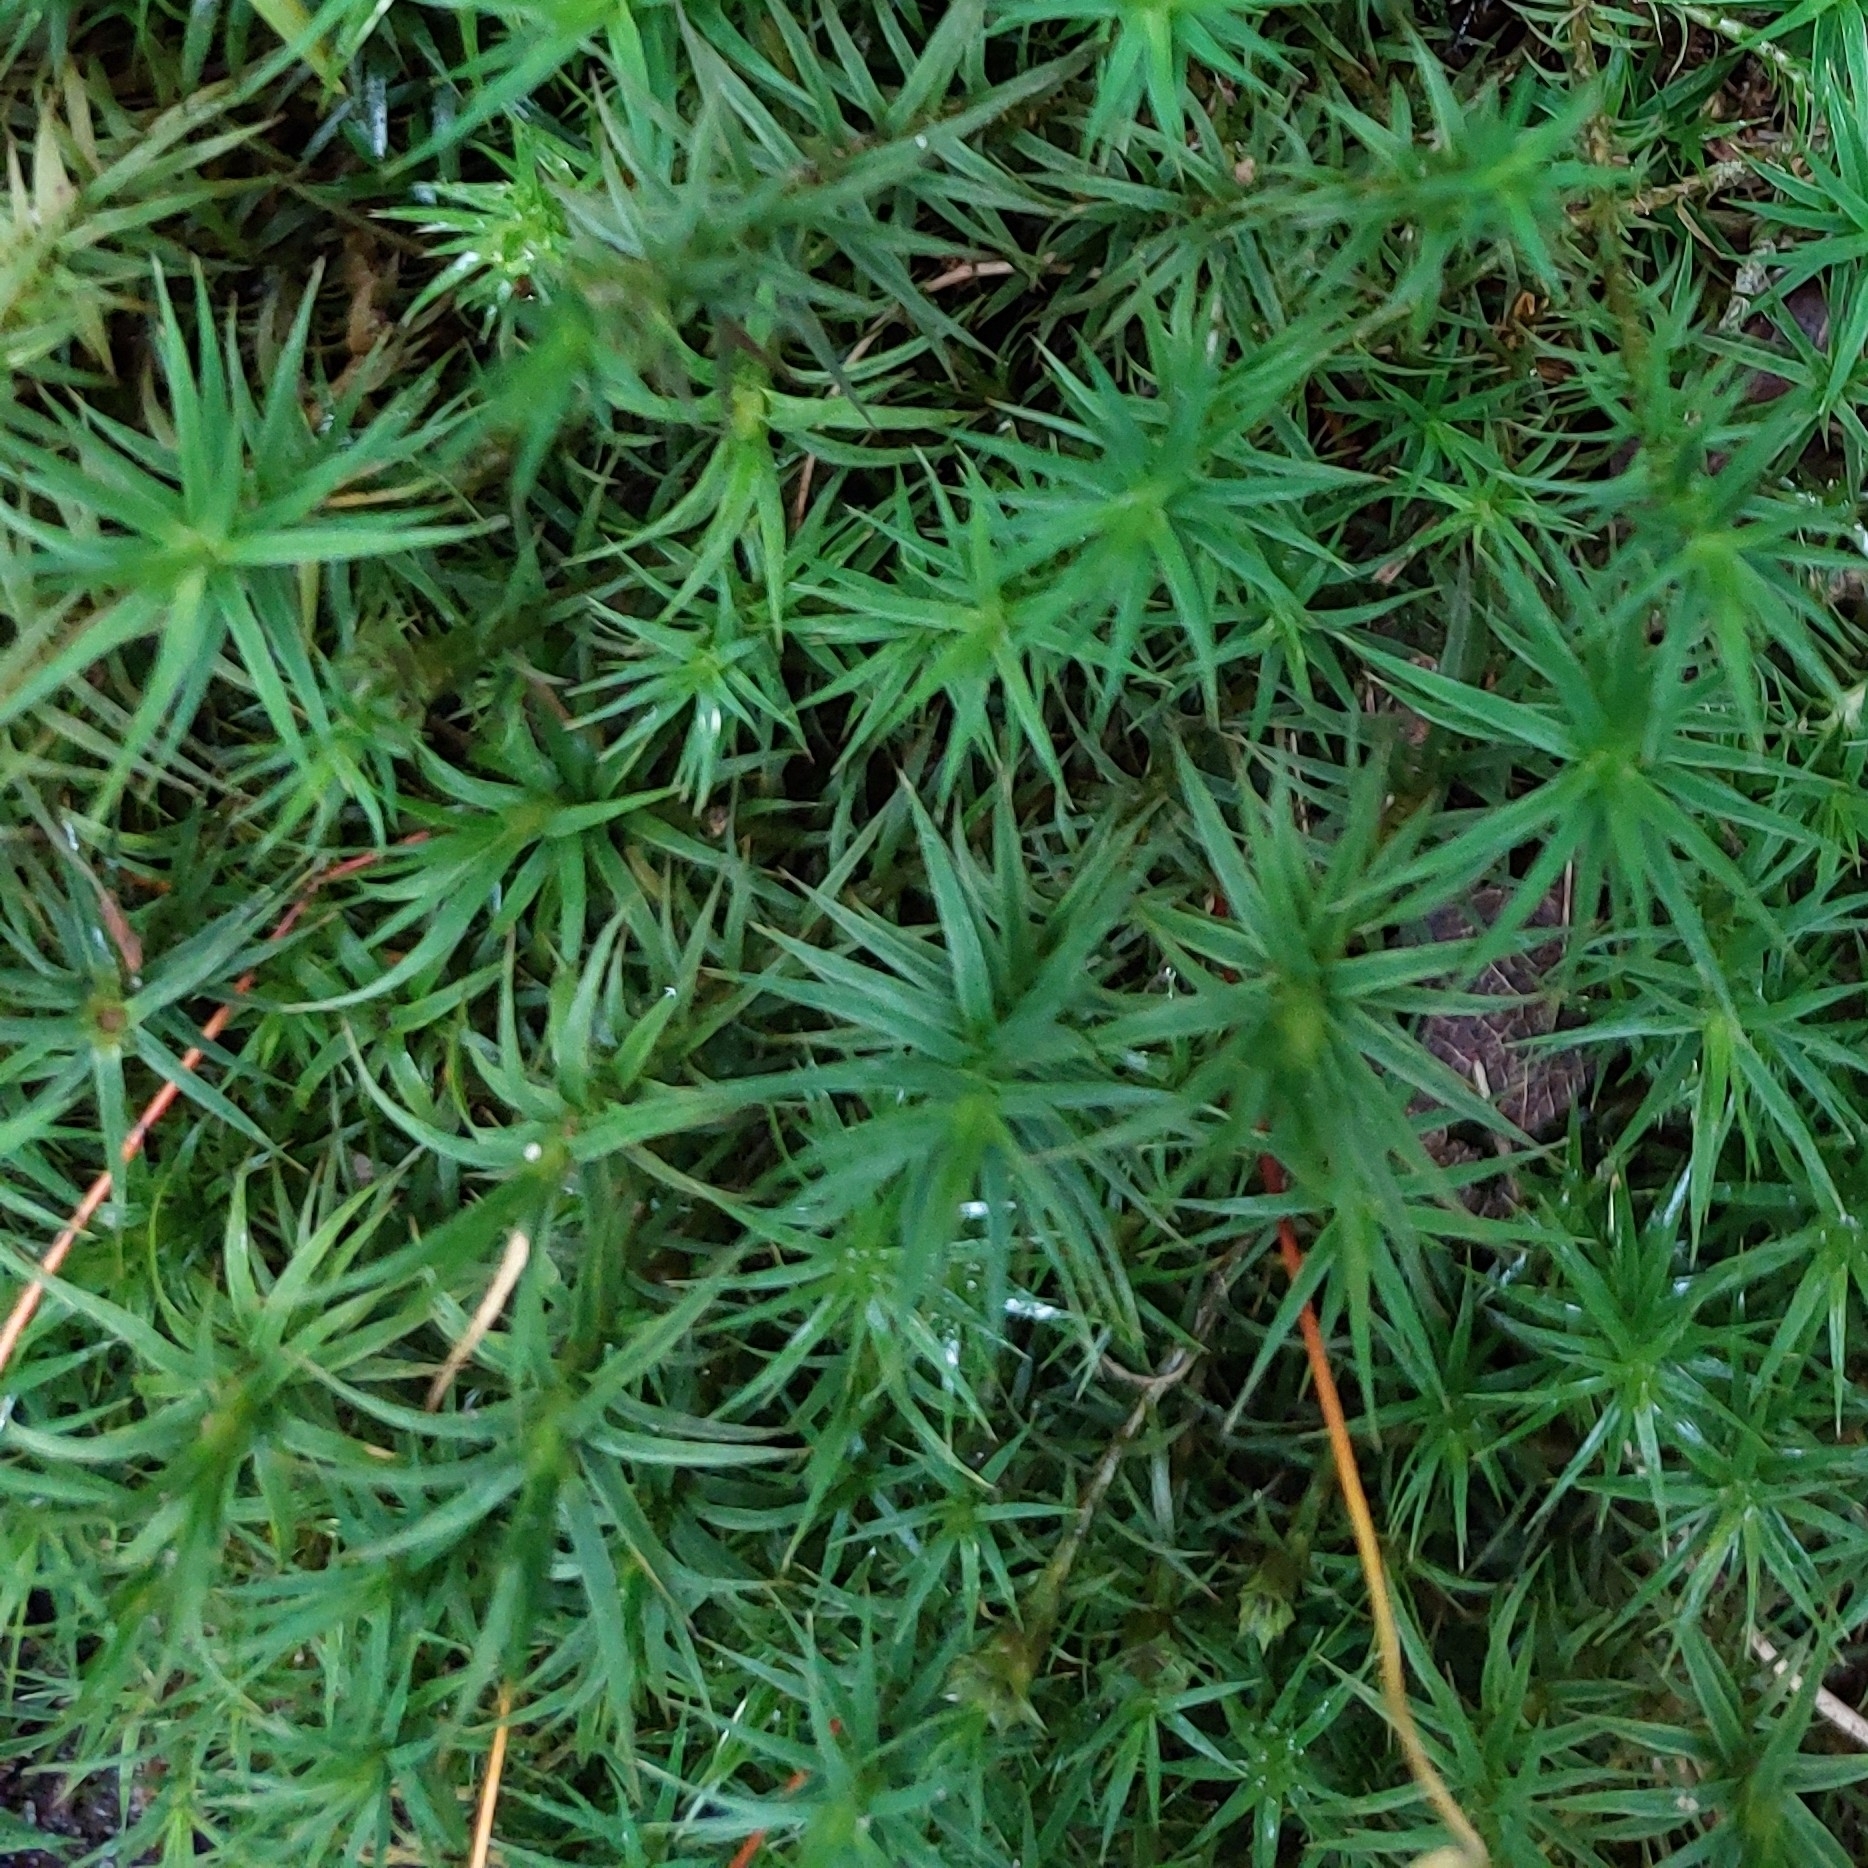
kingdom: Plantae
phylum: Bryophyta
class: Polytrichopsida
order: Polytrichales
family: Polytrichaceae
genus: Polytrichum
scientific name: Polytrichum formosum
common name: Bank haircap moss
